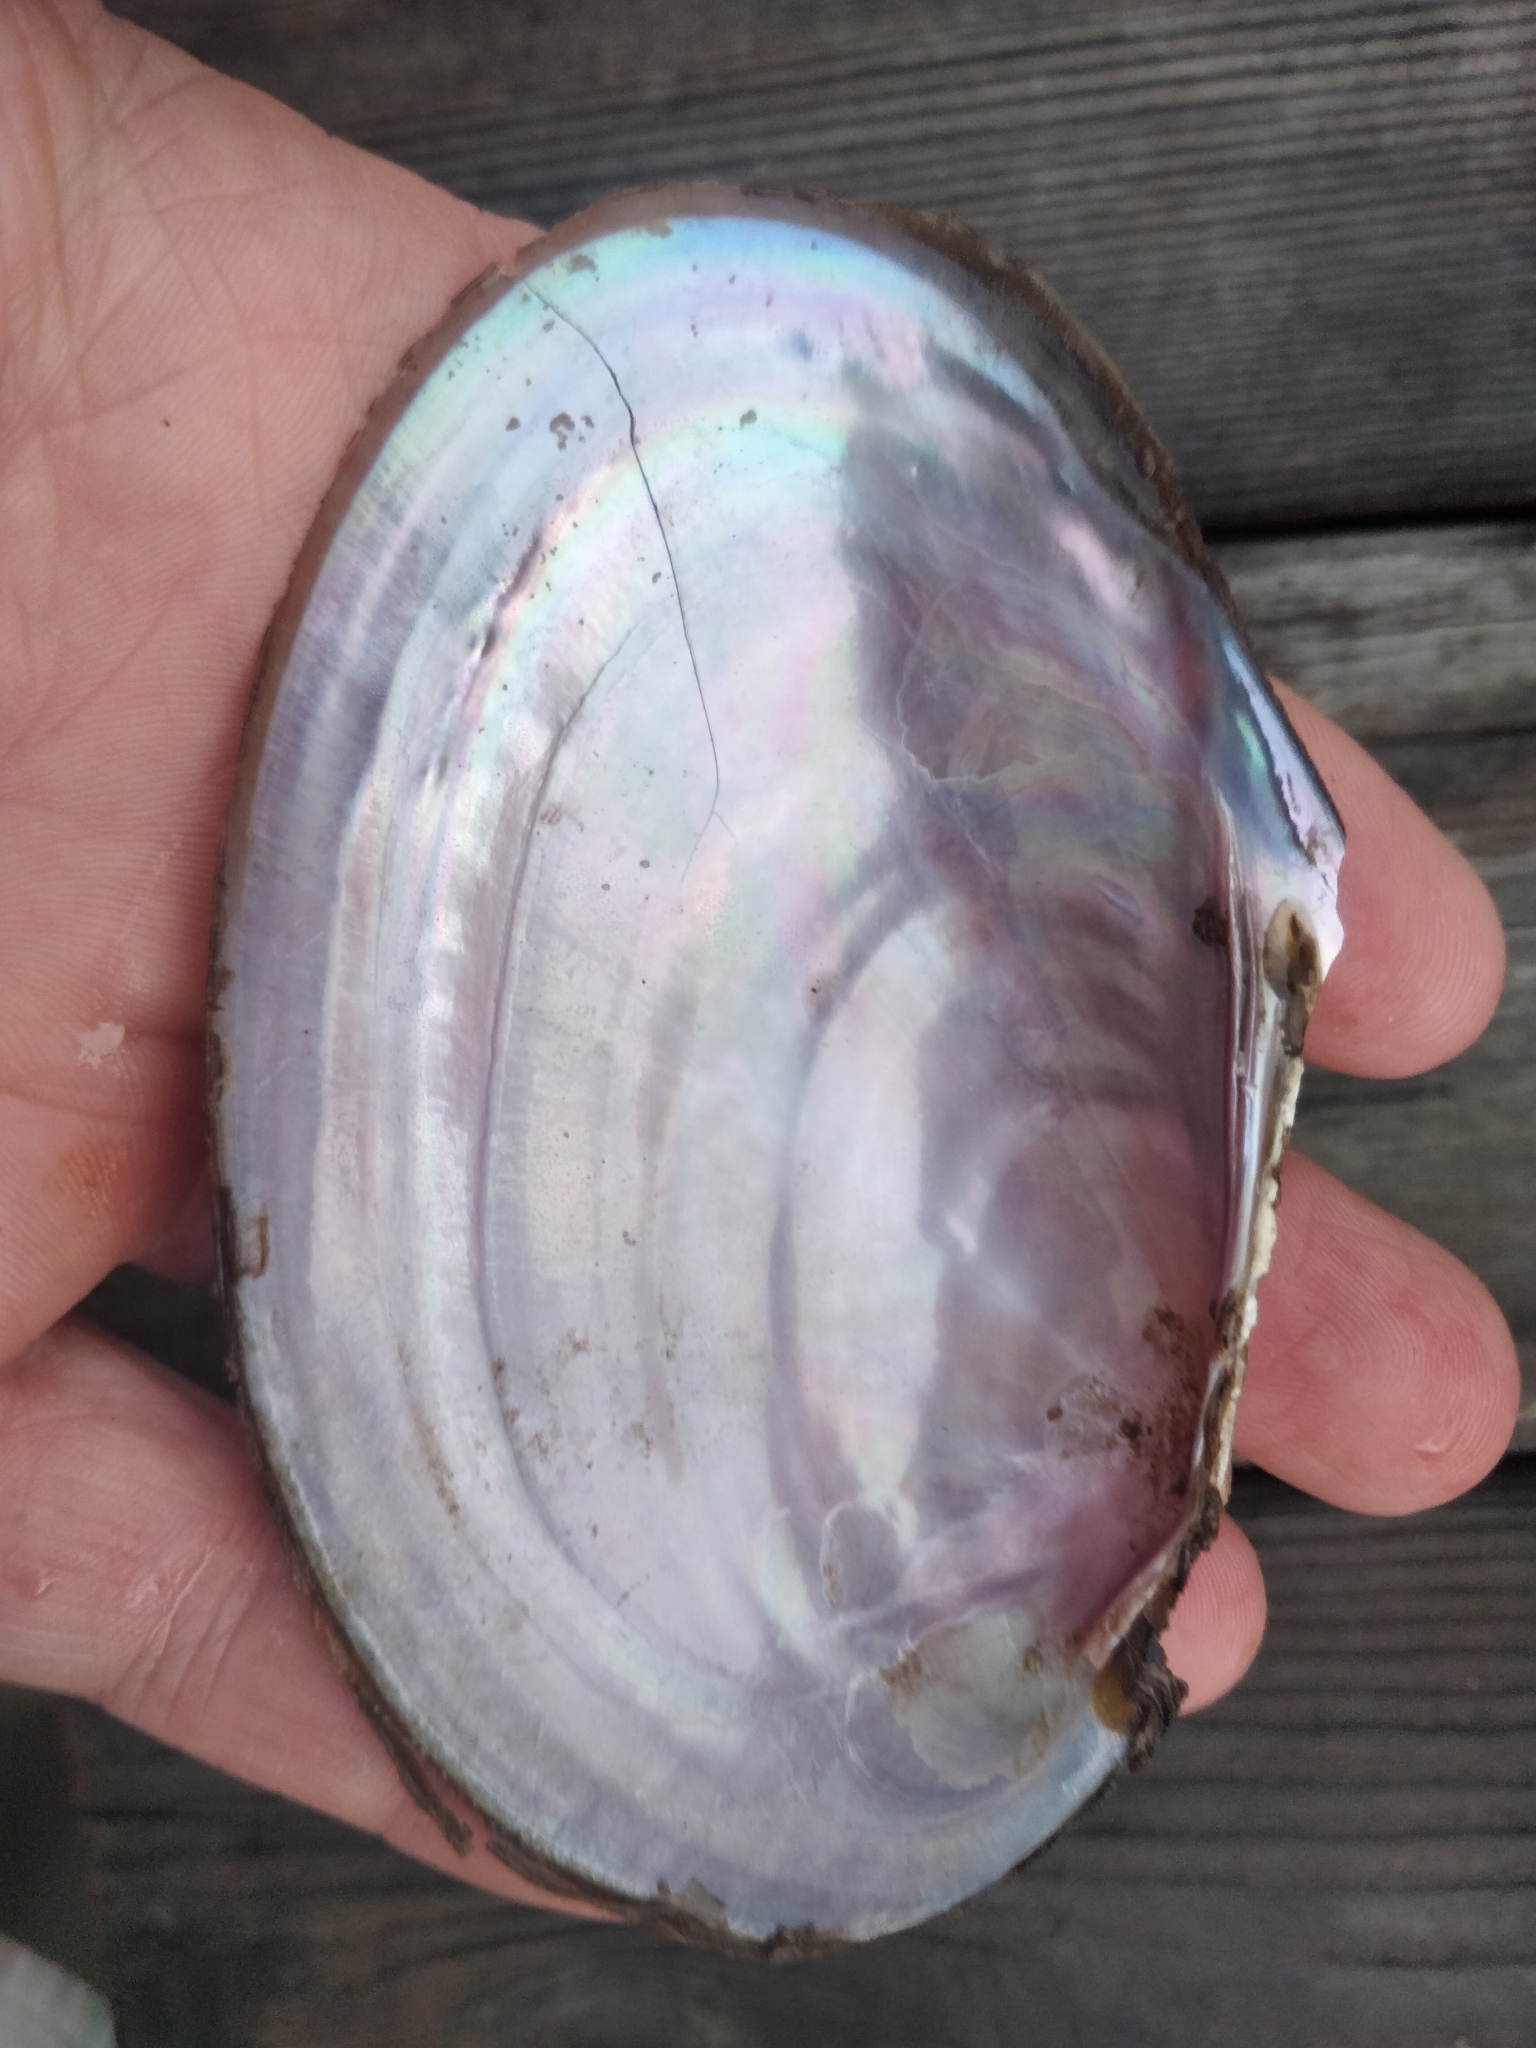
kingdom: Animalia
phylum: Mollusca
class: Bivalvia
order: Unionida
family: Unionidae
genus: Potamilus
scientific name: Potamilus ohiensis
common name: Pink papershell
